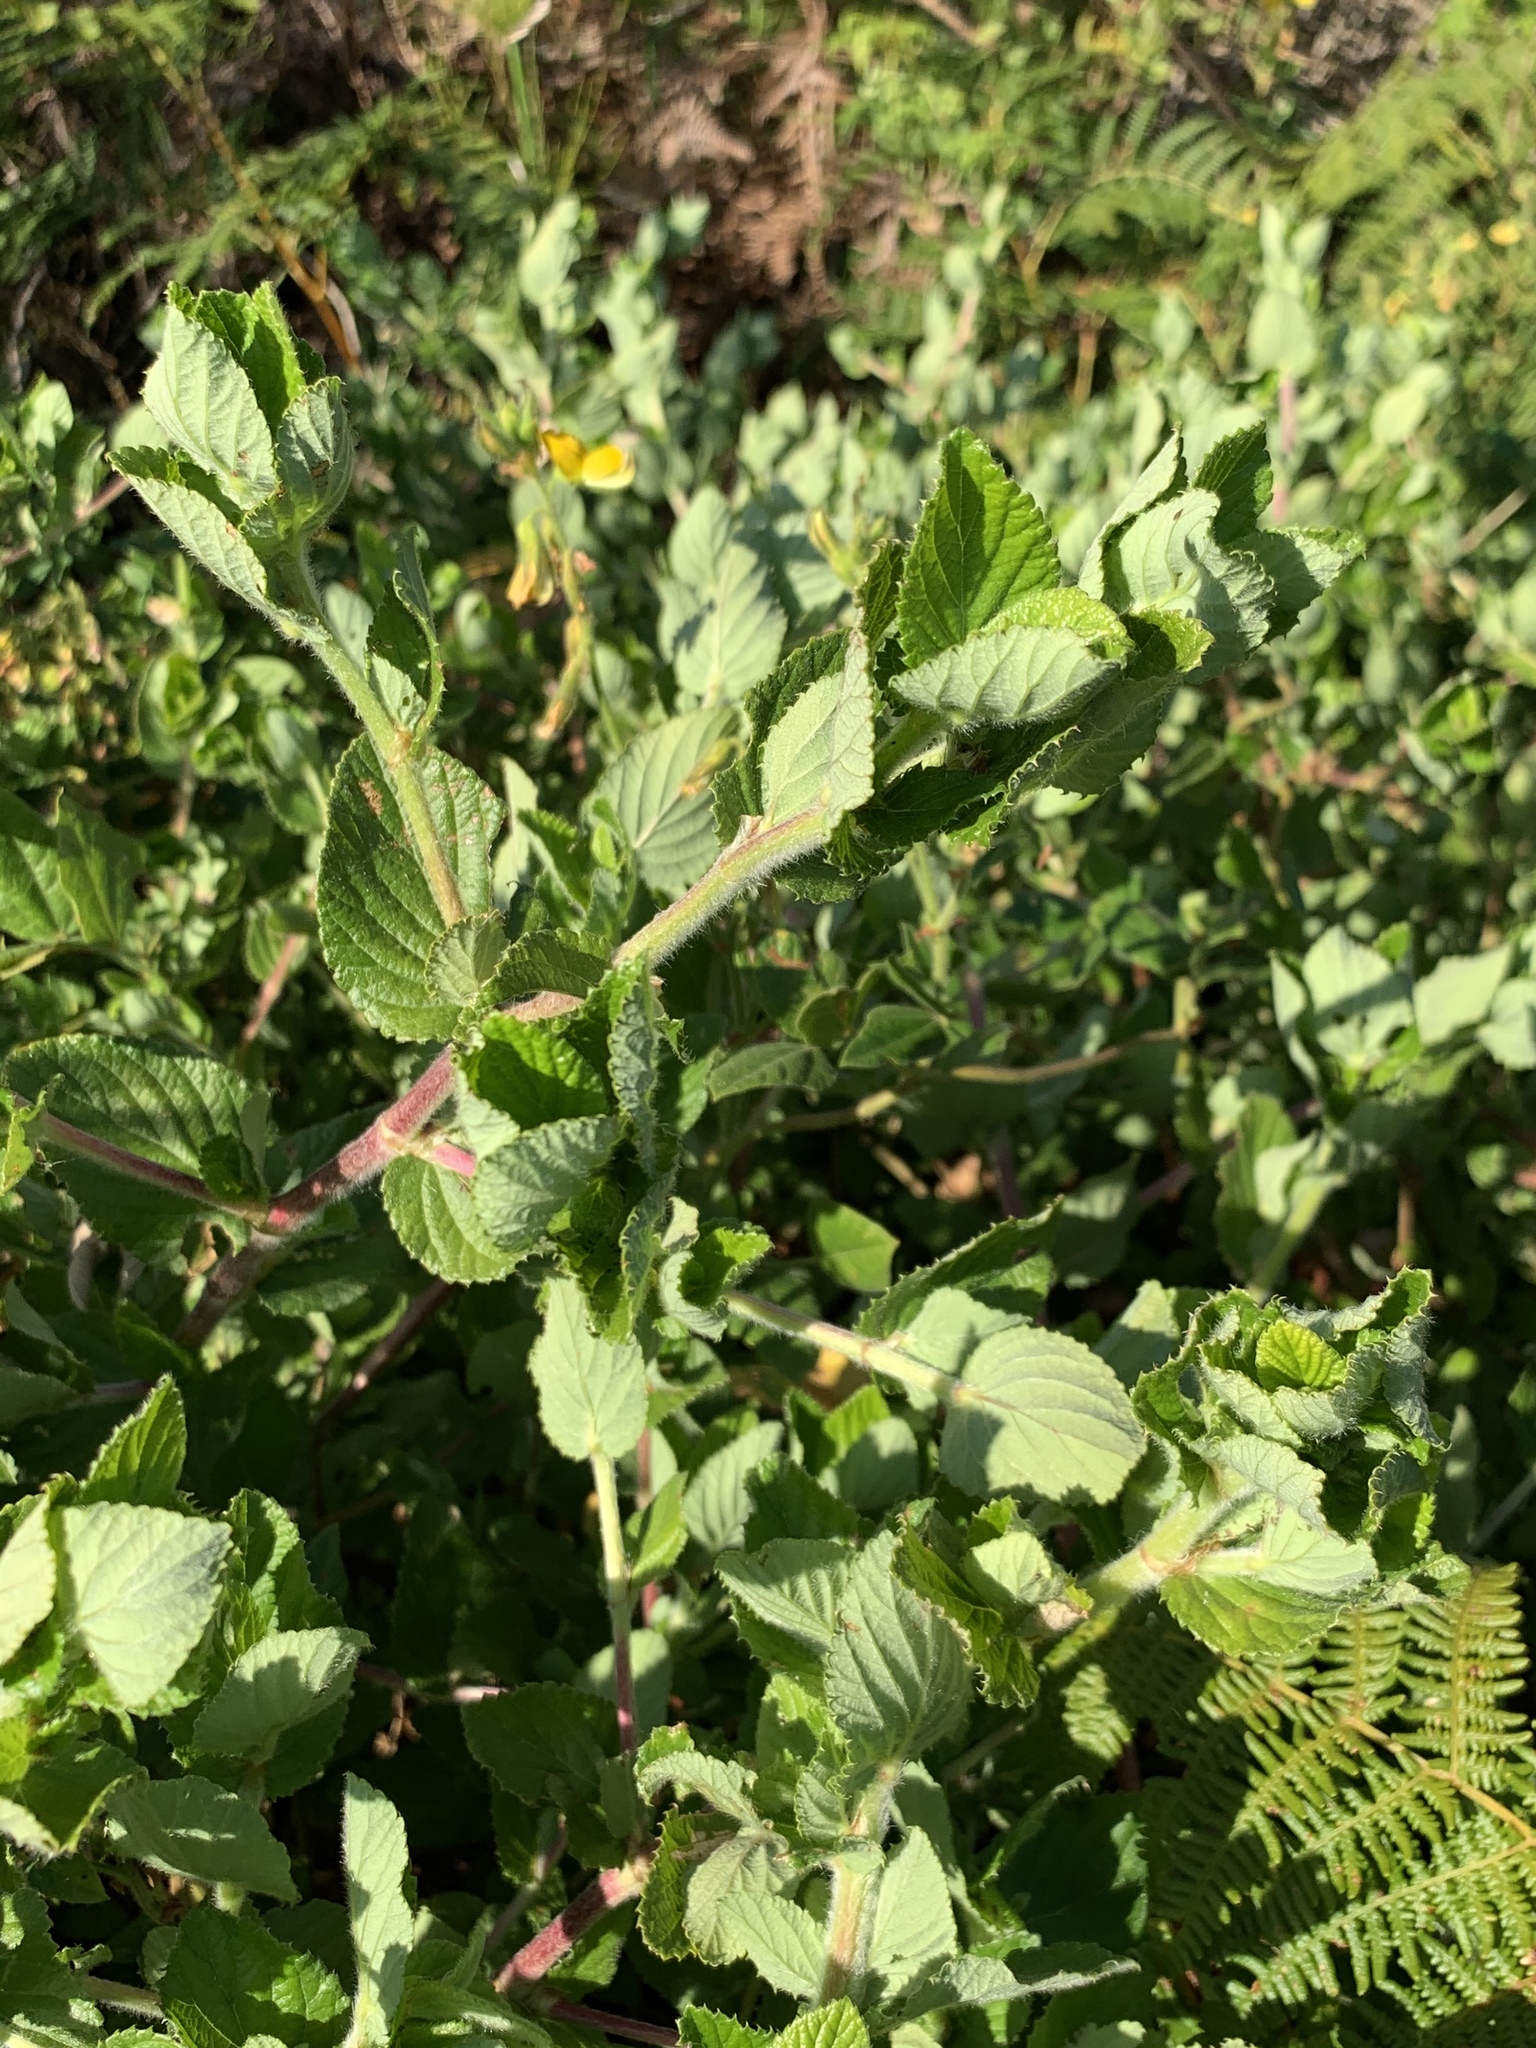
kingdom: Plantae
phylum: Tracheophyta
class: Magnoliopsida
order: Rosales
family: Rosaceae
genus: Cliffortia
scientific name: Cliffortia odorata
